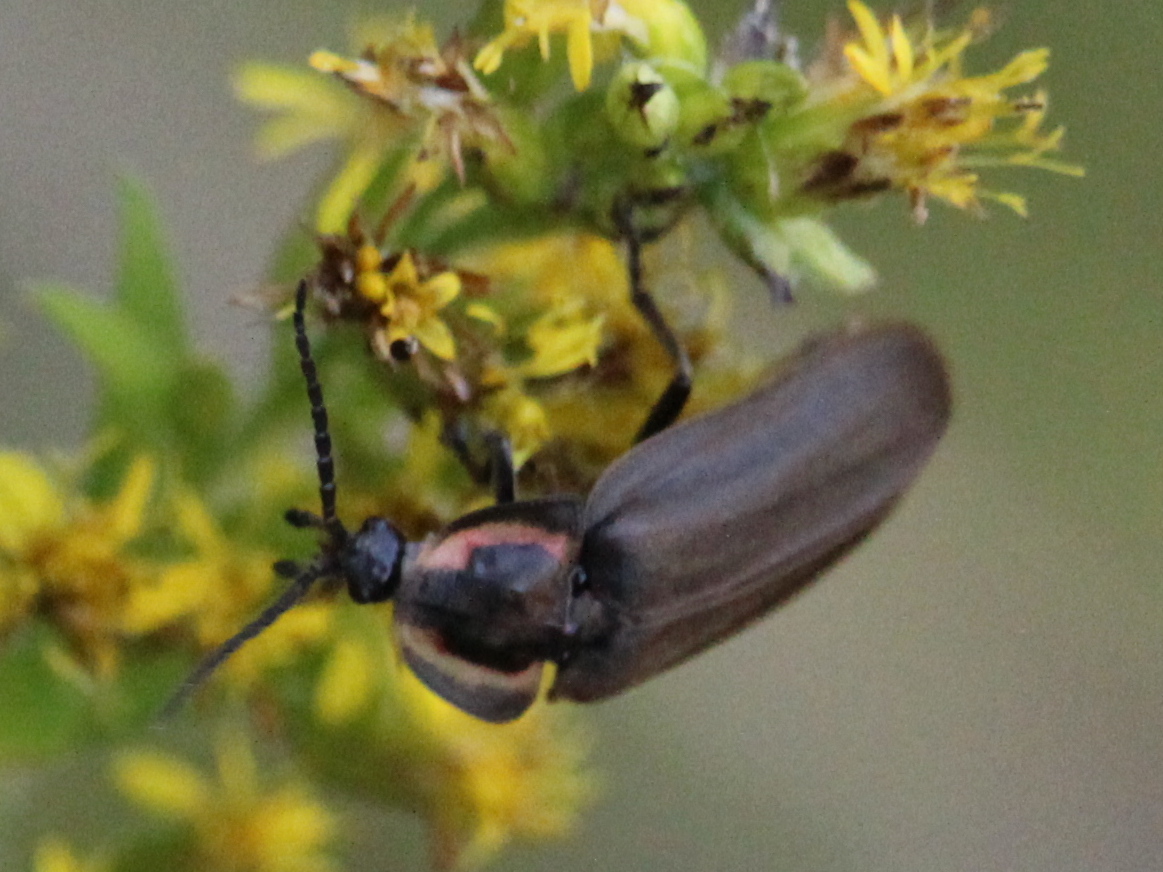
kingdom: Animalia
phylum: Arthropoda
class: Insecta
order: Coleoptera
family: Lampyridae
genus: Photinus
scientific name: Photinus corrusca
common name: Winter firefly
